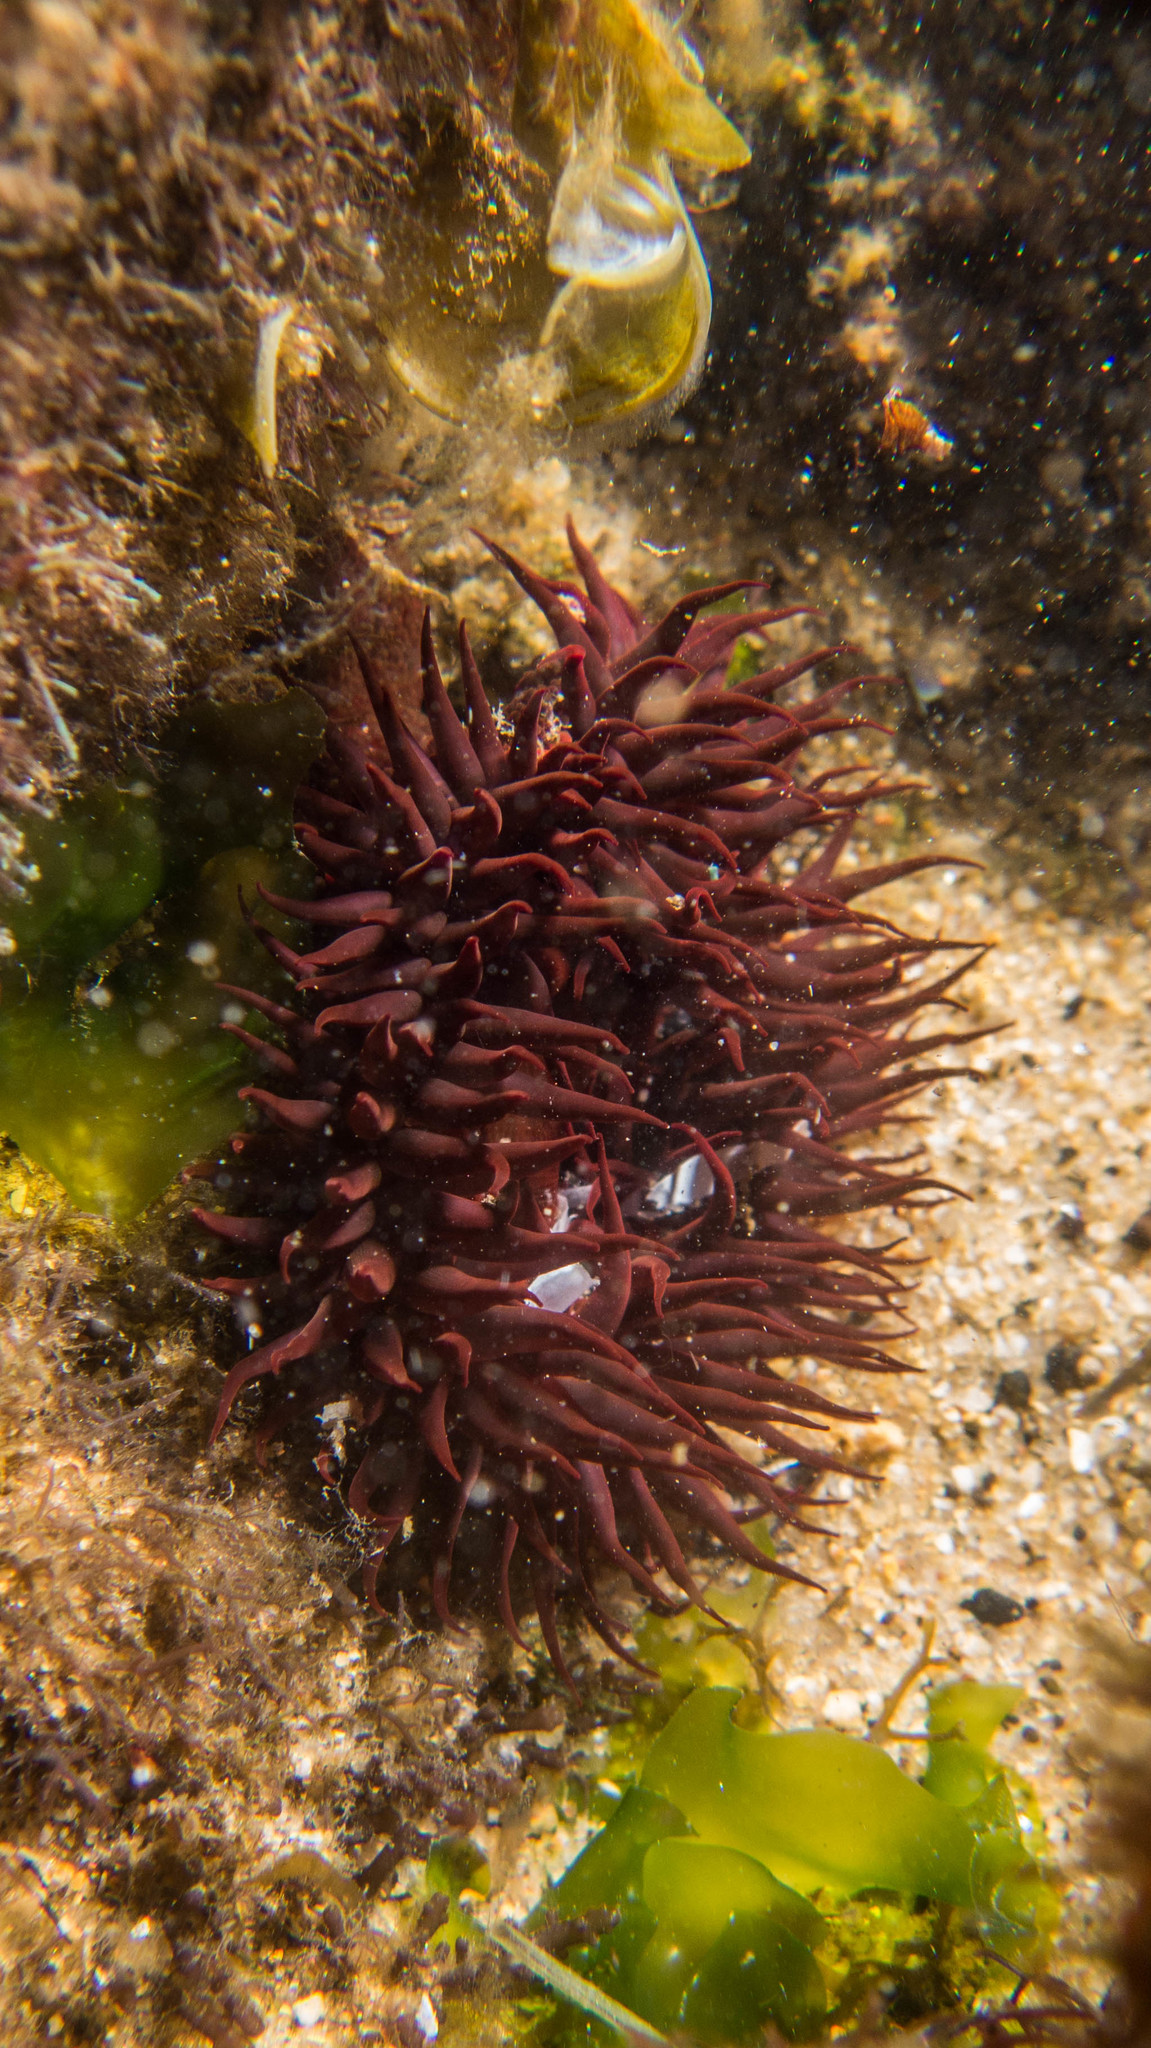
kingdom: Animalia
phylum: Cnidaria
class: Anthozoa
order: Actiniaria
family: Actiniidae
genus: Bunodosoma
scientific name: Bunodosoma caissarum
